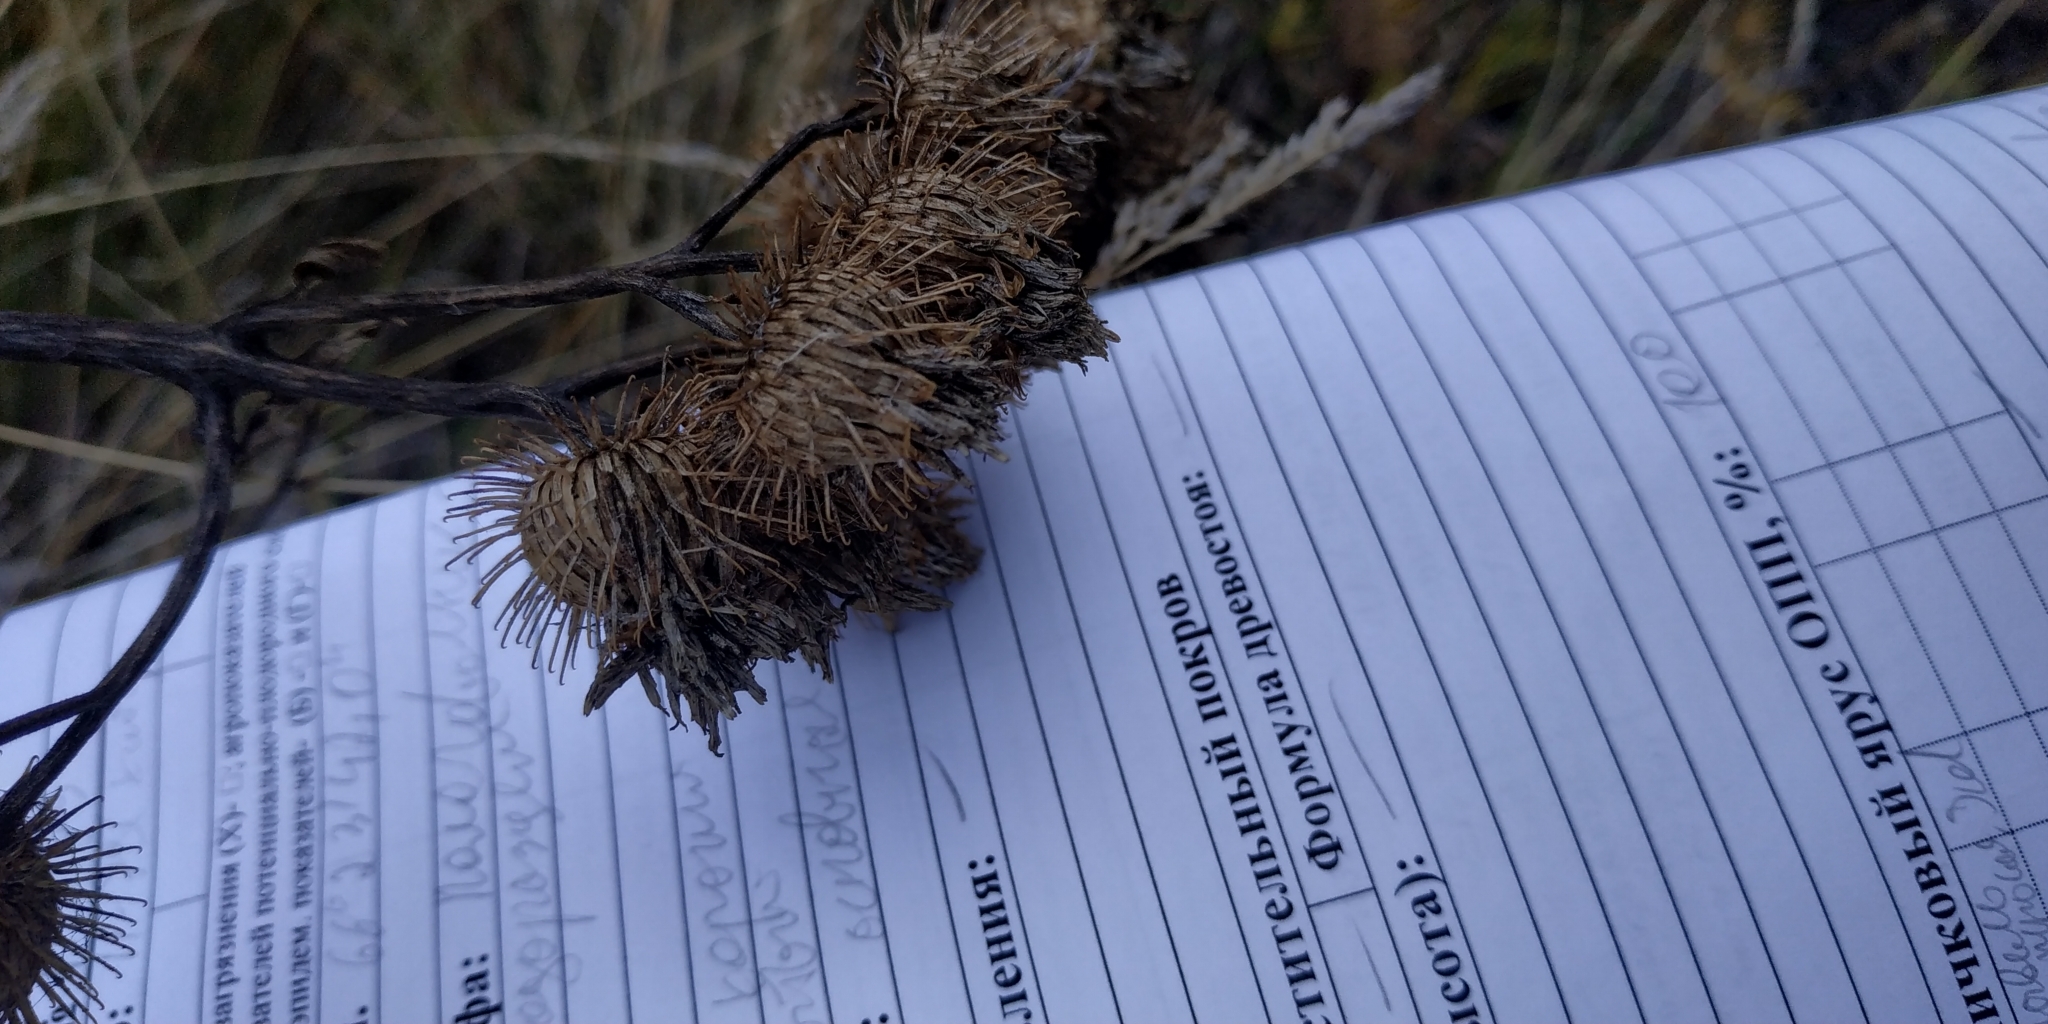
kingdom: Plantae
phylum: Tracheophyta
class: Magnoliopsida
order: Asterales
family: Asteraceae
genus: Arctium
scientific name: Arctium tomentosum
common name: Woolly burdock
